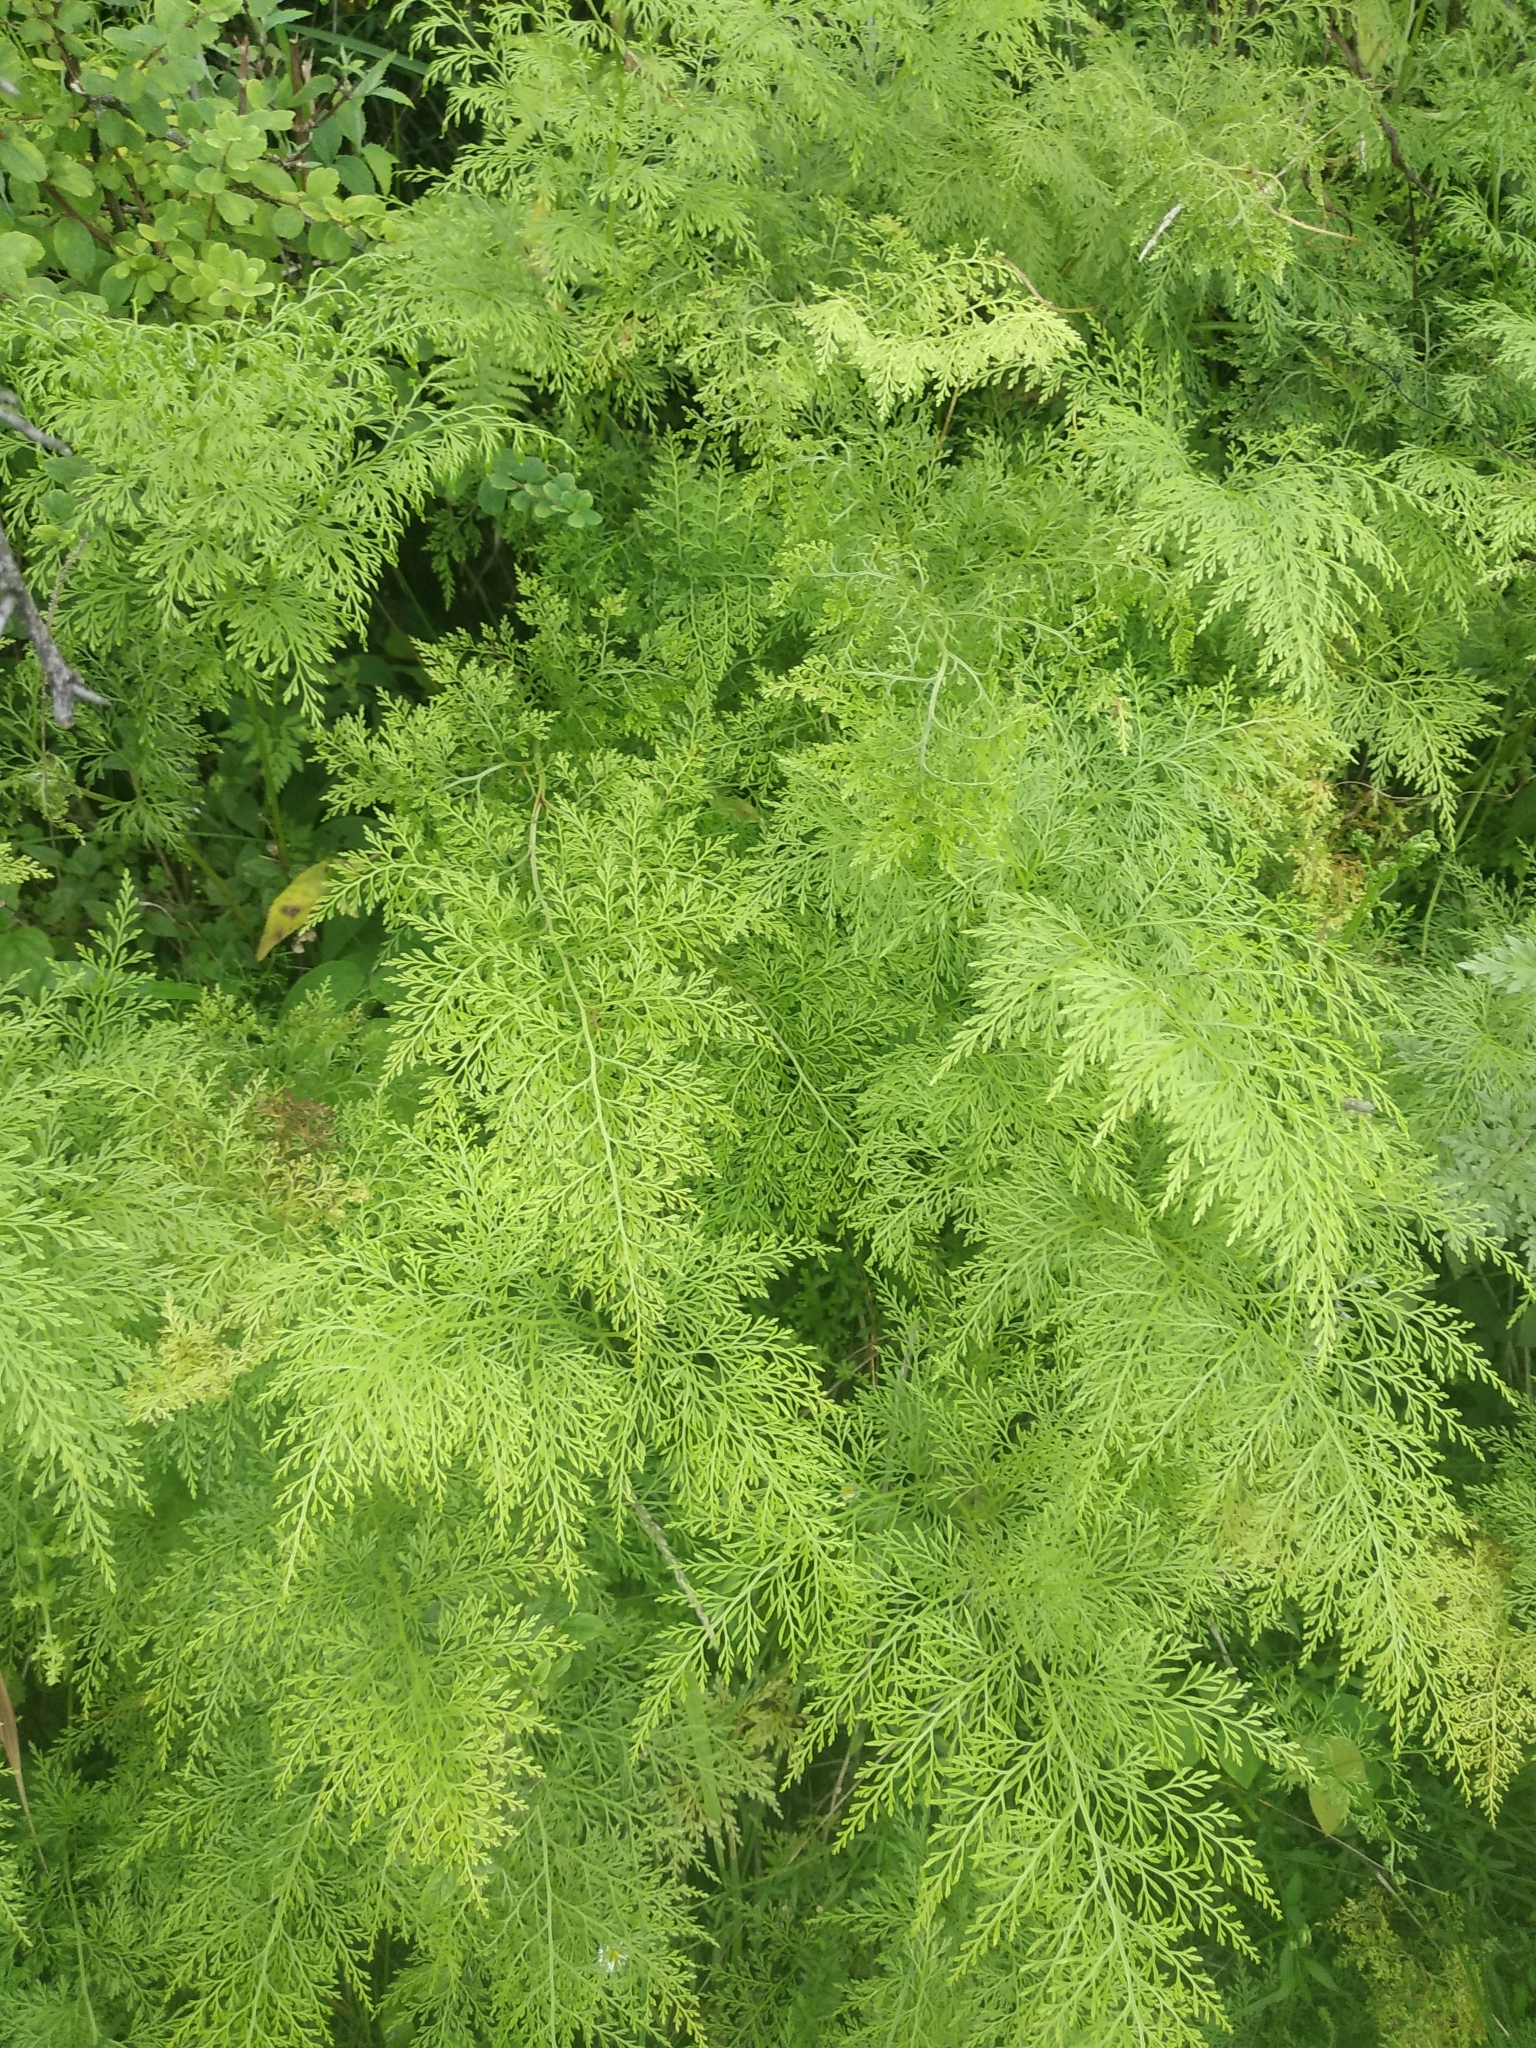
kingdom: Plantae
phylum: Tracheophyta
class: Polypodiopsida
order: Polypodiales
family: Lindsaeaceae
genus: Odontosoria
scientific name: Odontosoria chinensis
